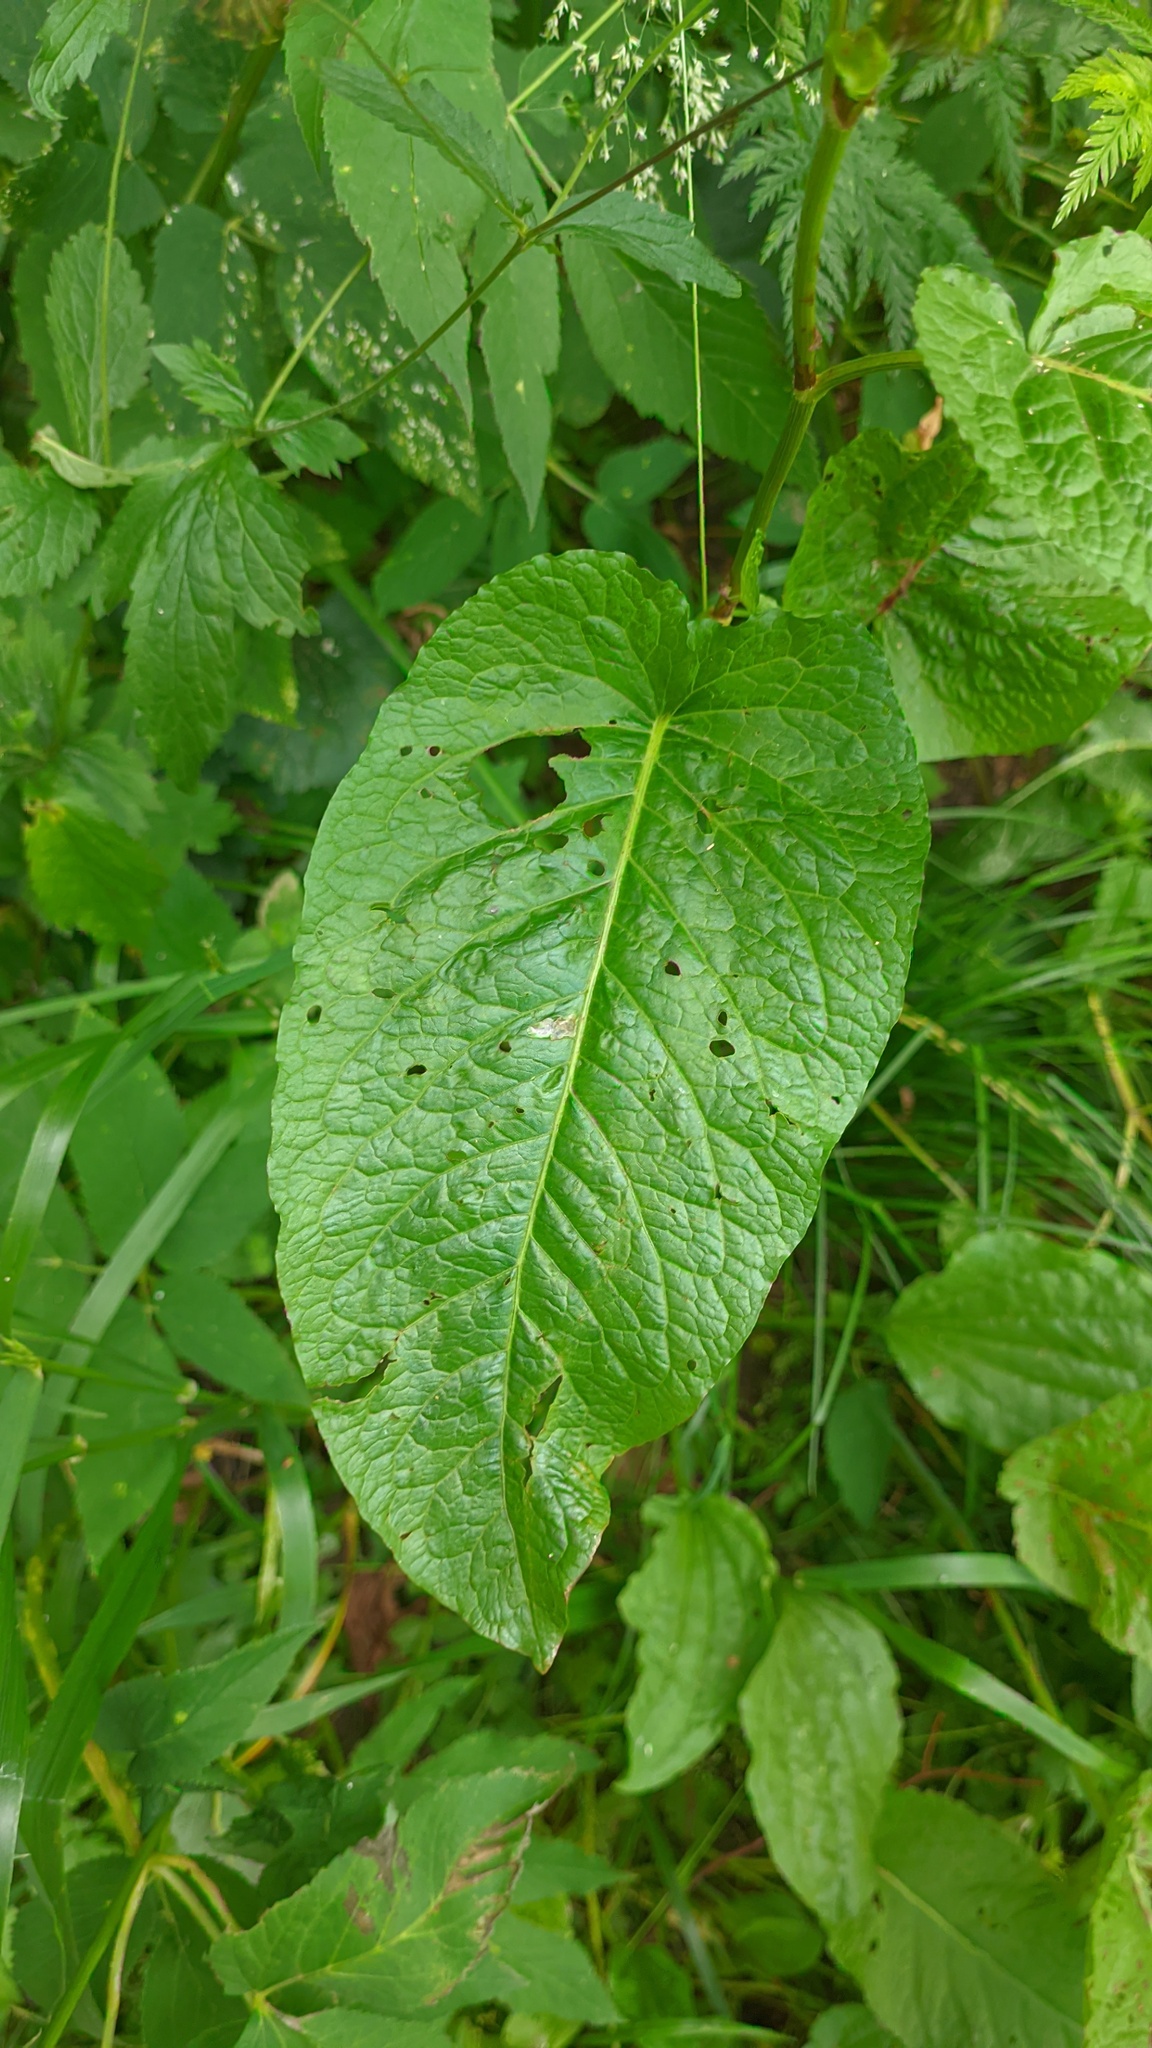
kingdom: Plantae
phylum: Tracheophyta
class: Magnoliopsida
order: Caryophyllales
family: Polygonaceae
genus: Rumex
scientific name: Rumex obtusifolius
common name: Bitter dock
